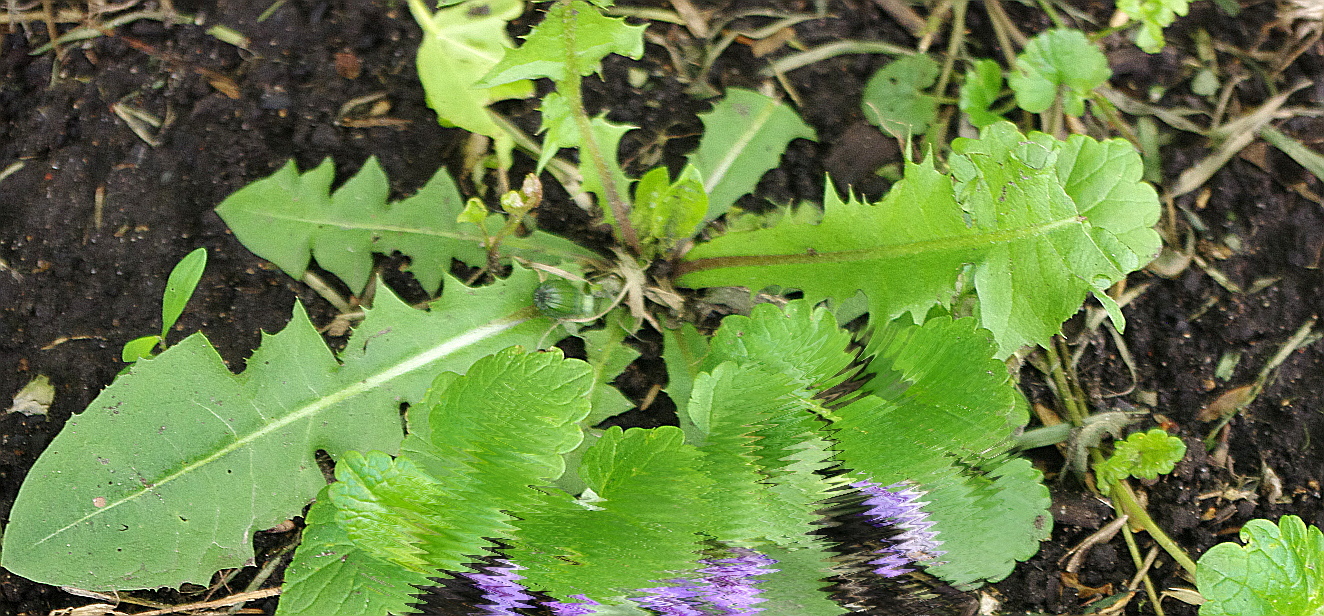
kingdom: Plantae
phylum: Tracheophyta
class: Magnoliopsida
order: Asterales
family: Asteraceae
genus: Taraxacum
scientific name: Taraxacum officinale
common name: Common dandelion
